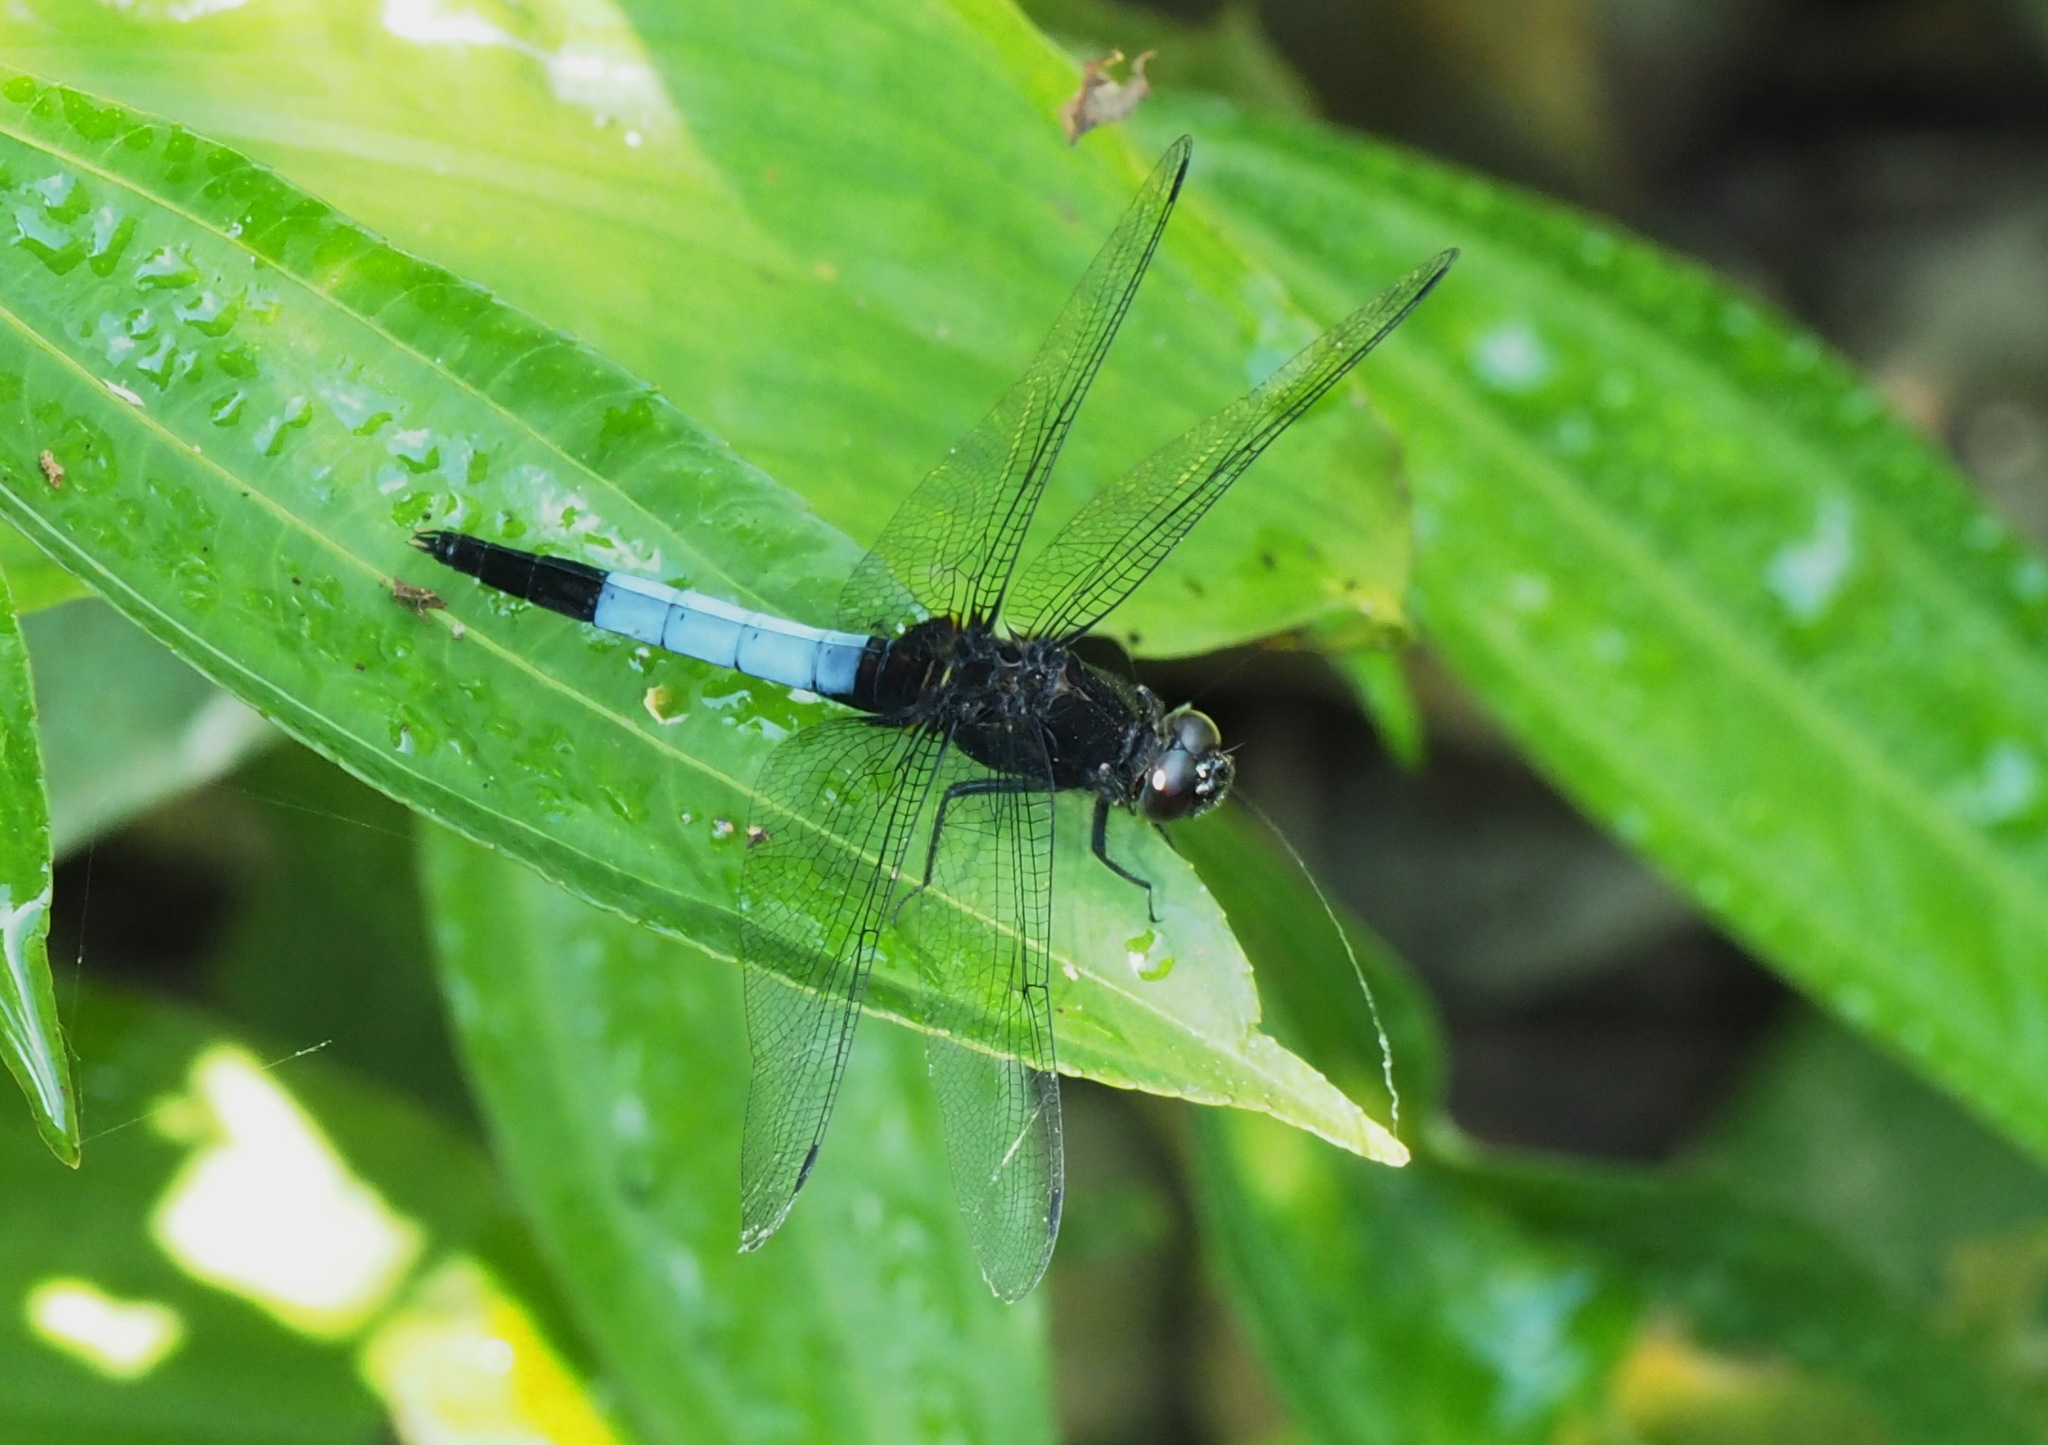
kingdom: Animalia
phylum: Arthropoda
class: Insecta
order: Odonata
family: Libellulidae
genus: Orthetrum
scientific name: Orthetrum triangulare
